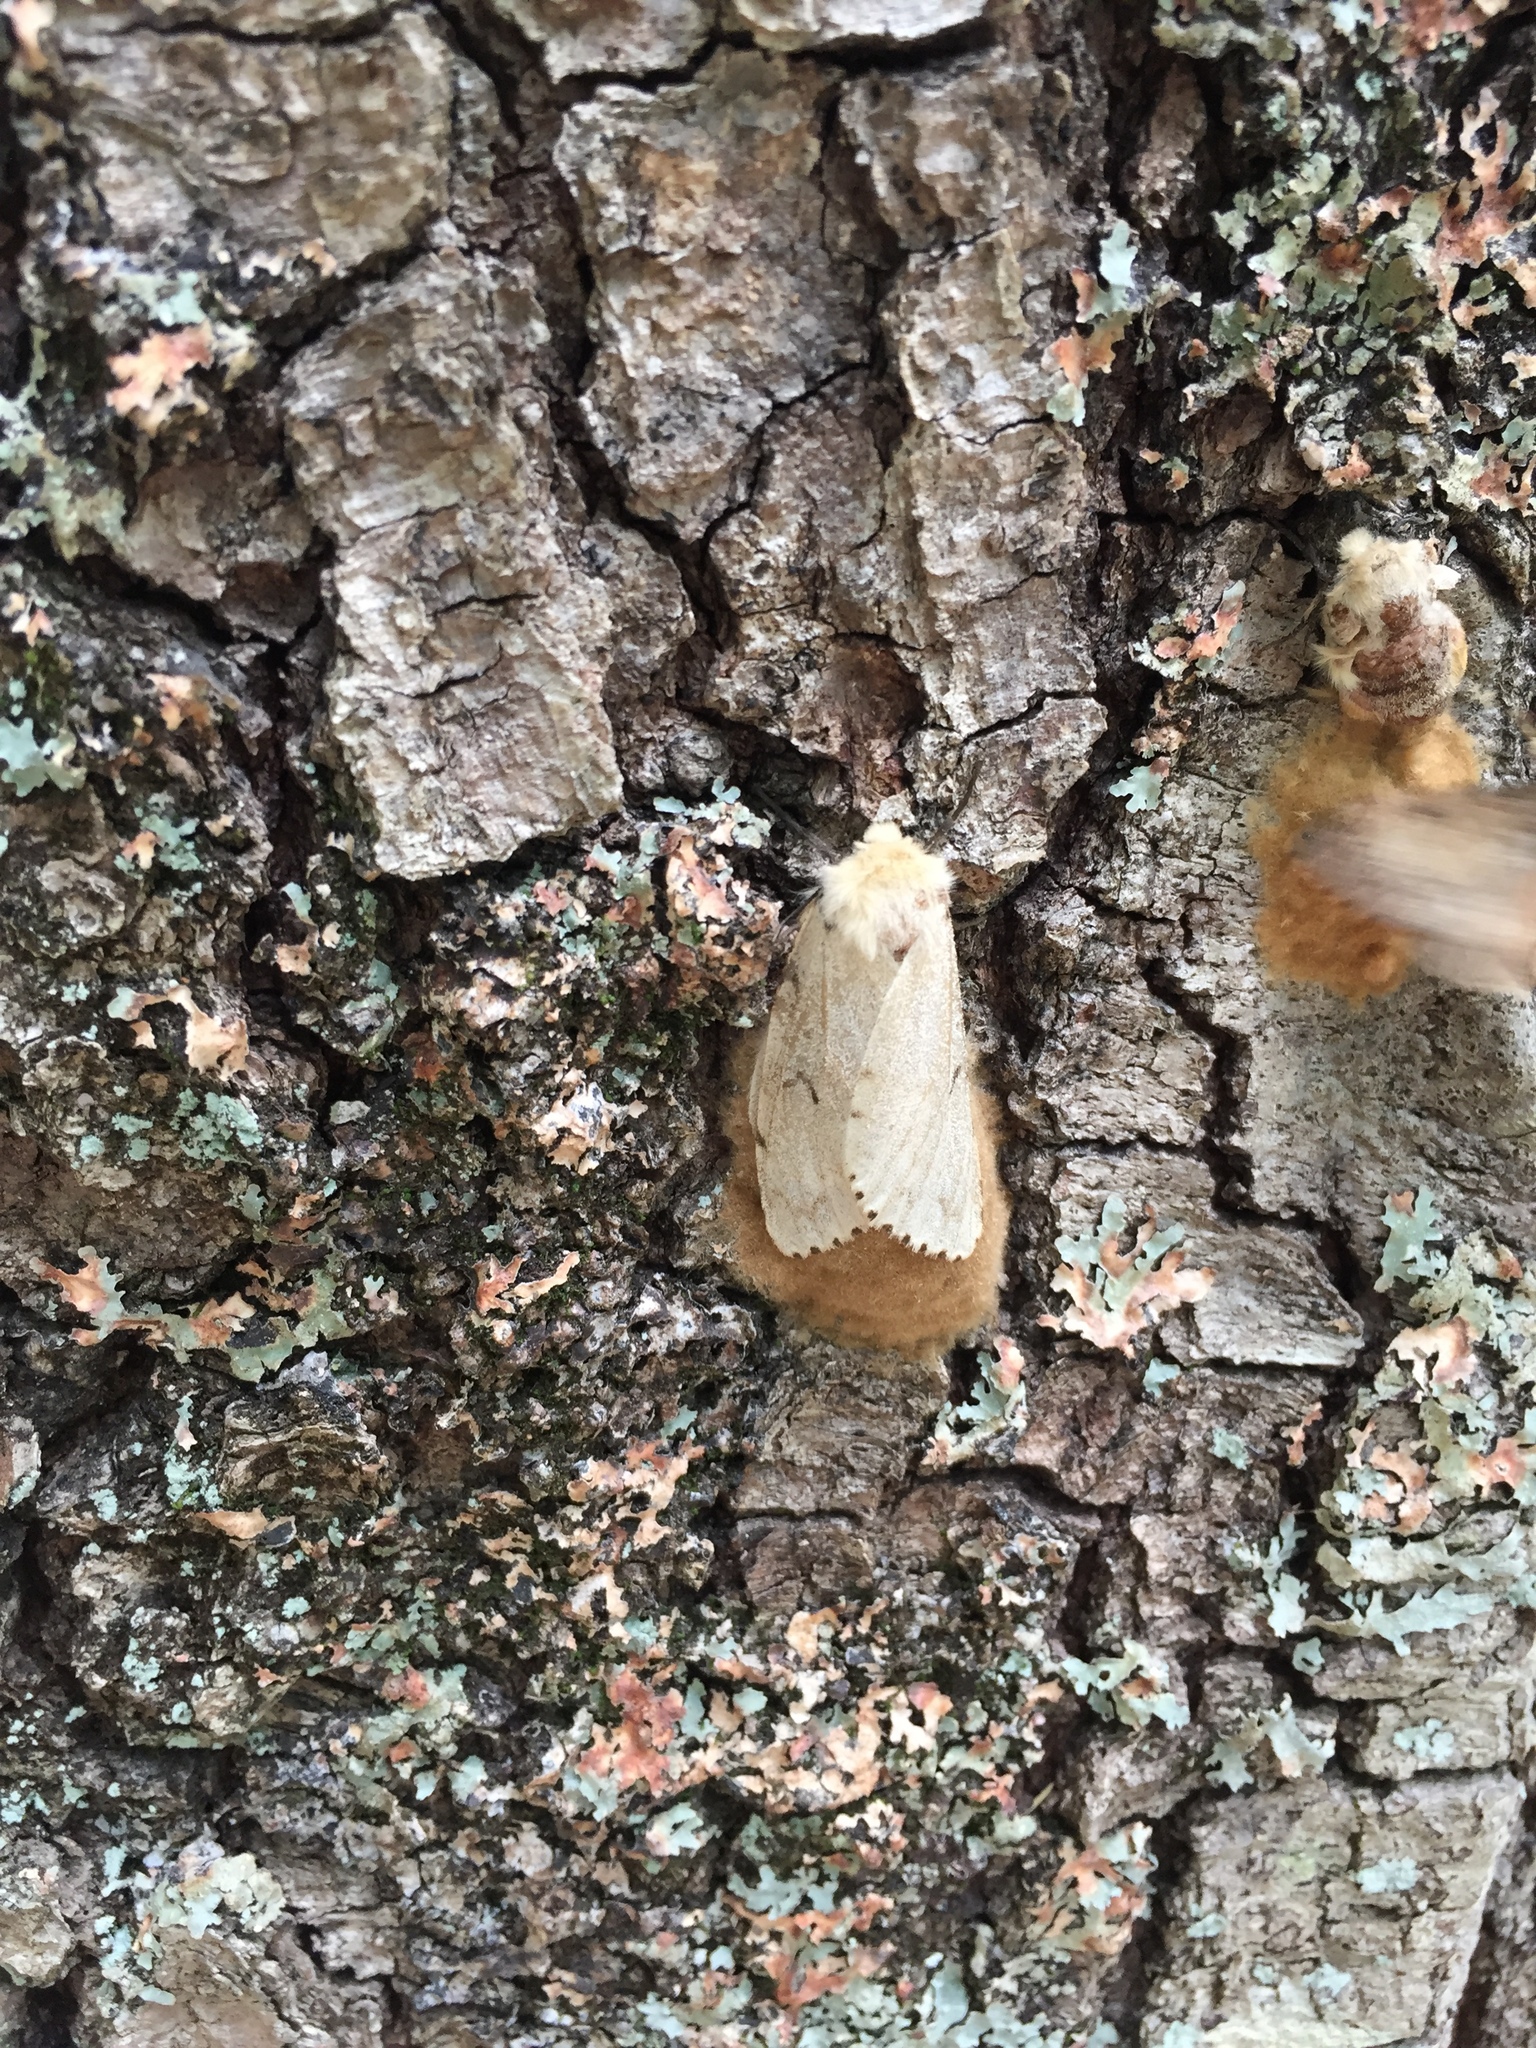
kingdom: Animalia
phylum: Arthropoda
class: Insecta
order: Lepidoptera
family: Erebidae
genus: Lymantria
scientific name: Lymantria dispar
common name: Gypsy moth
